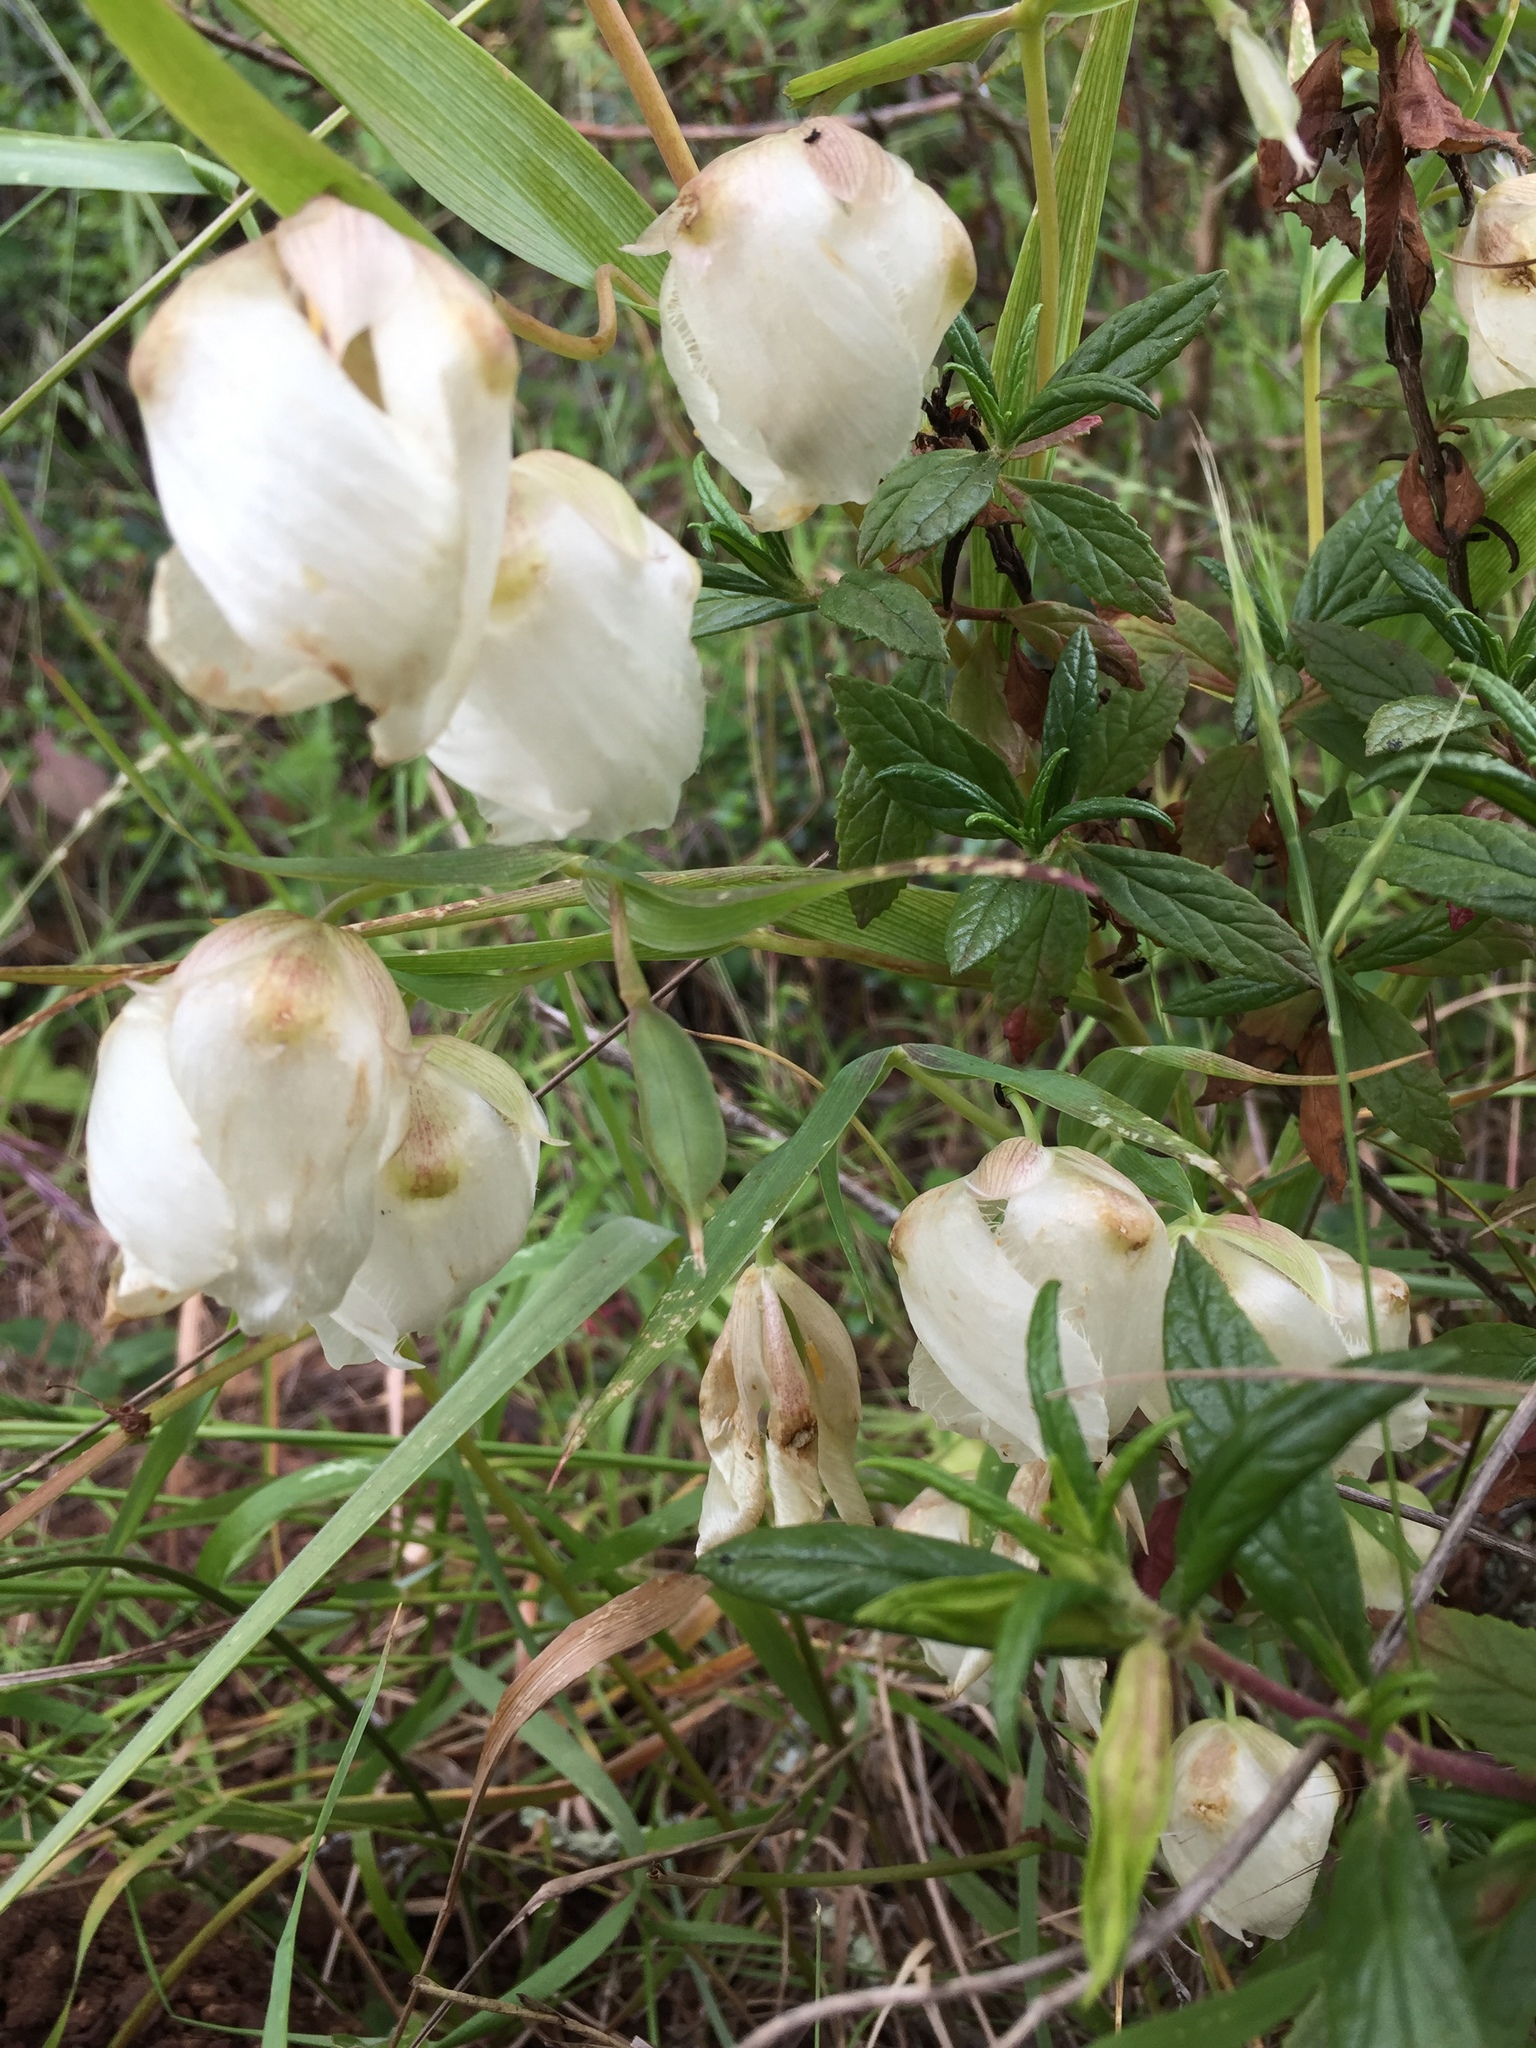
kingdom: Plantae
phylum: Tracheophyta
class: Liliopsida
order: Liliales
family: Liliaceae
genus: Calochortus
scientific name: Calochortus albus
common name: Fairy-lantern
